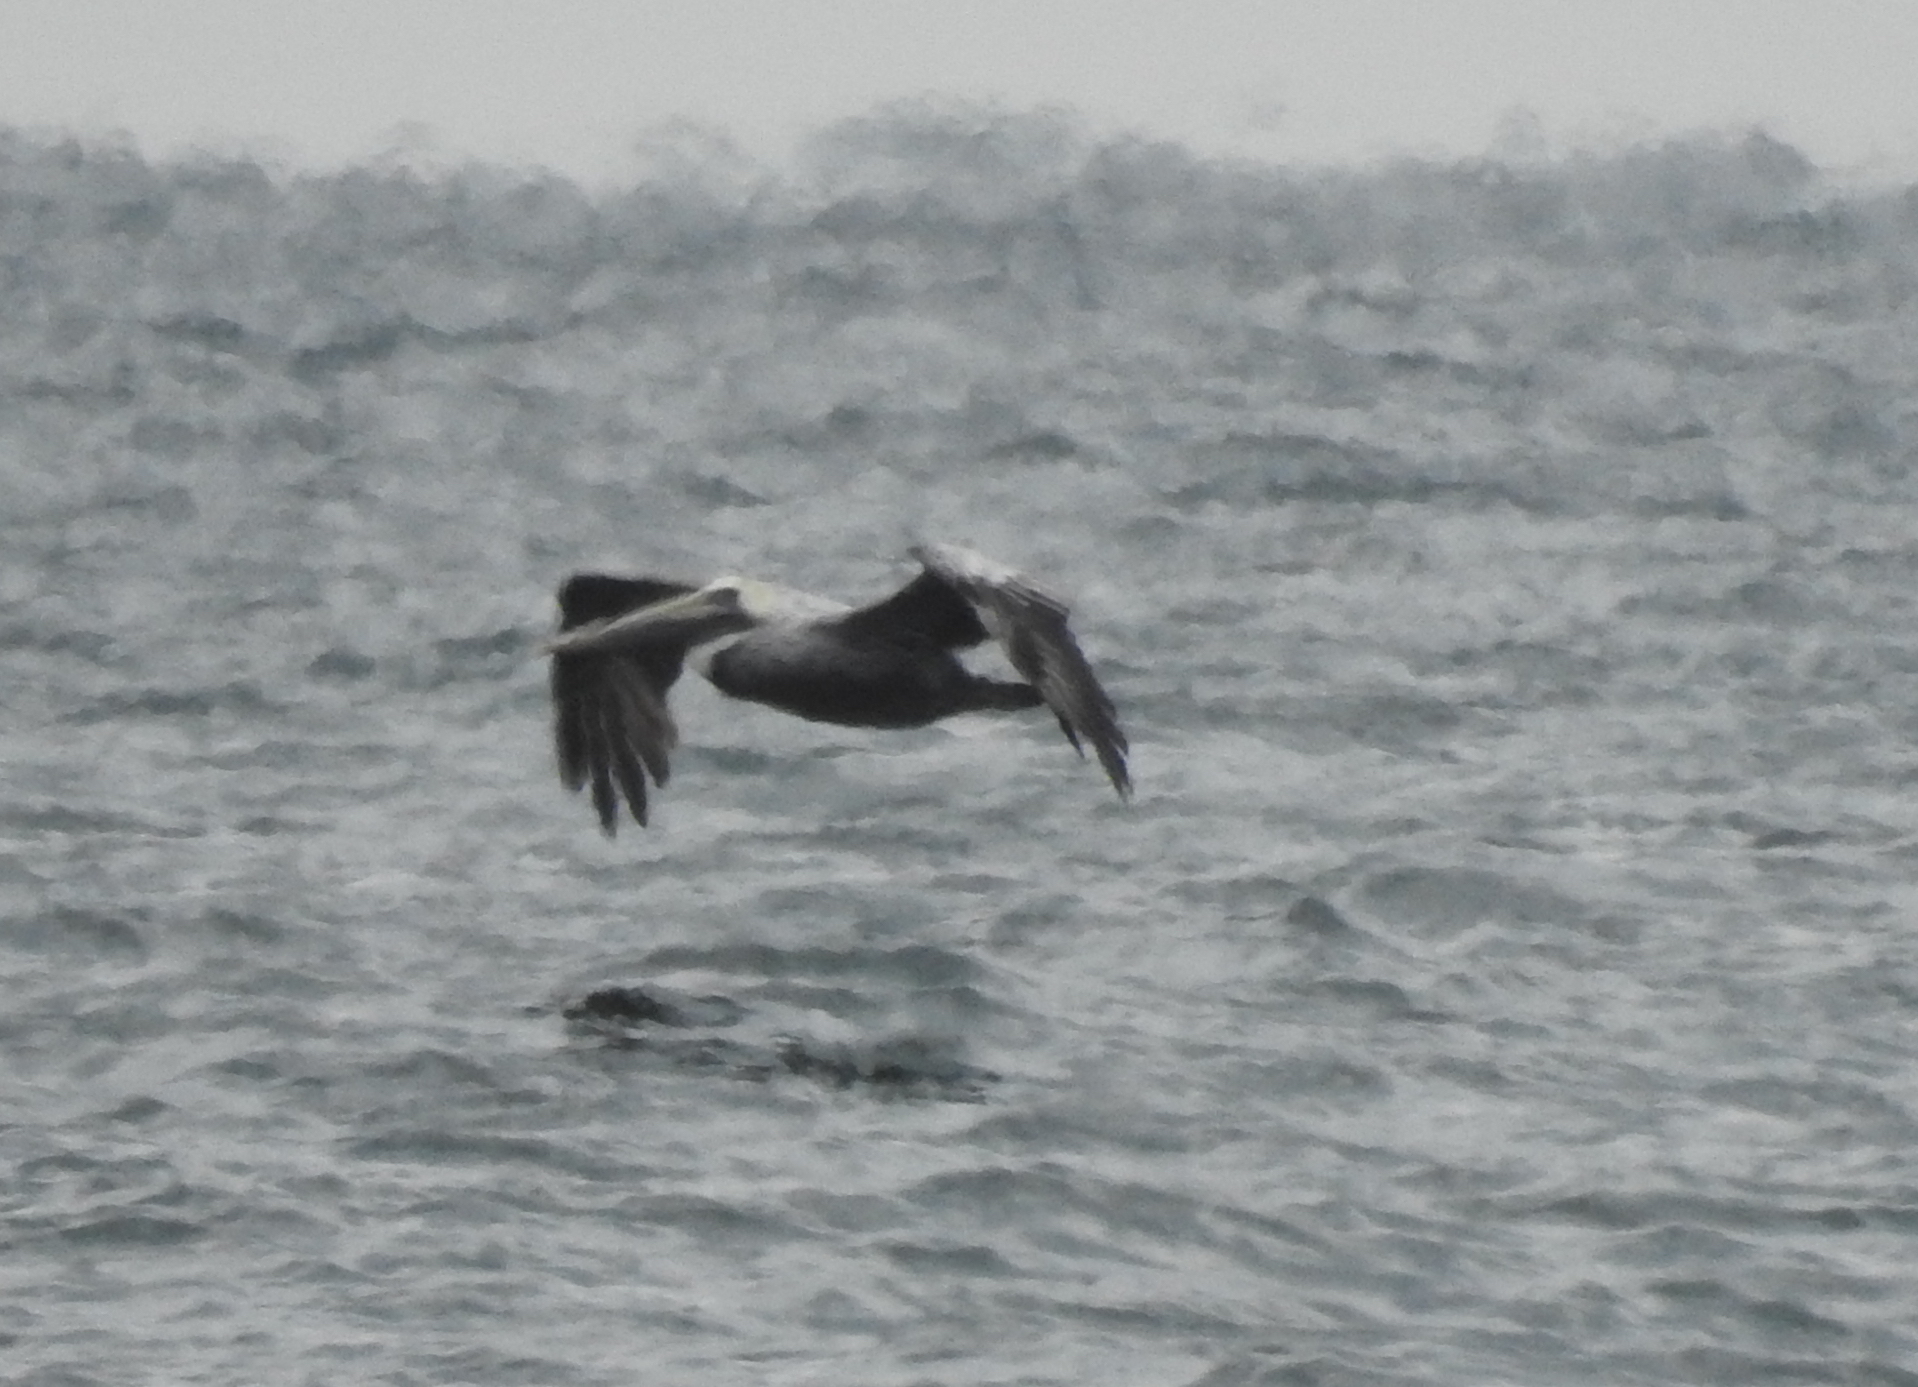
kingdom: Animalia
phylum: Chordata
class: Aves
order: Pelecaniformes
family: Pelecanidae
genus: Pelecanus
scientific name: Pelecanus occidentalis
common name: Brown pelican
